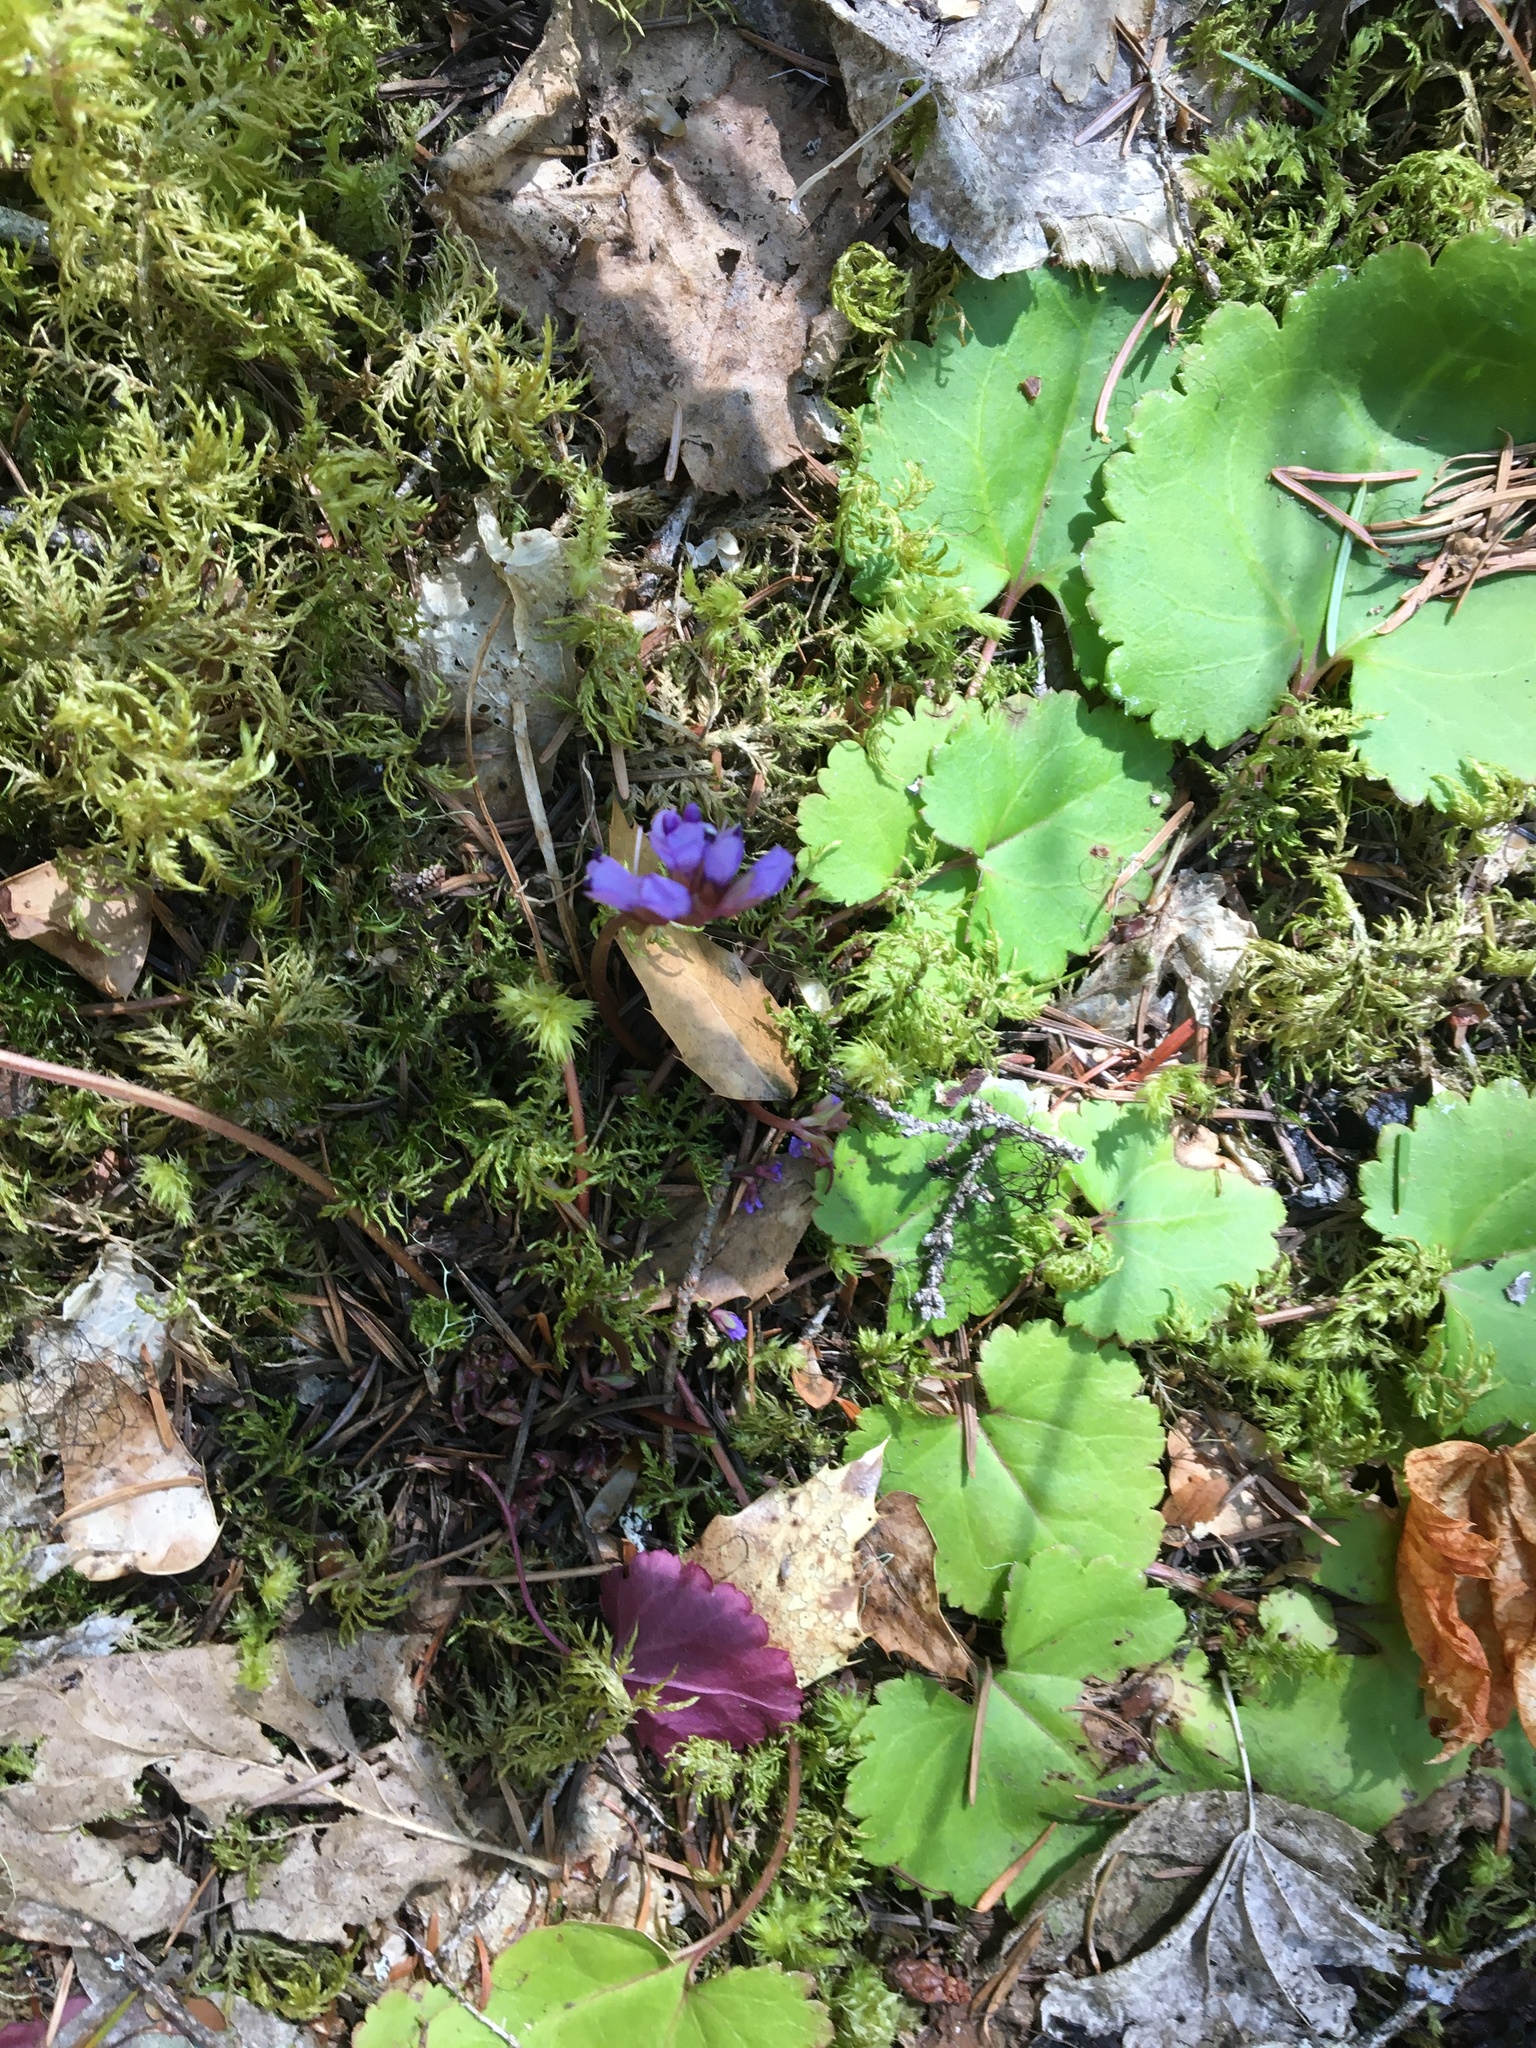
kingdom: Plantae
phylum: Tracheophyta
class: Magnoliopsida
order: Lamiales
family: Plantaginaceae
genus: Synthyris
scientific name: Synthyris reniformis
